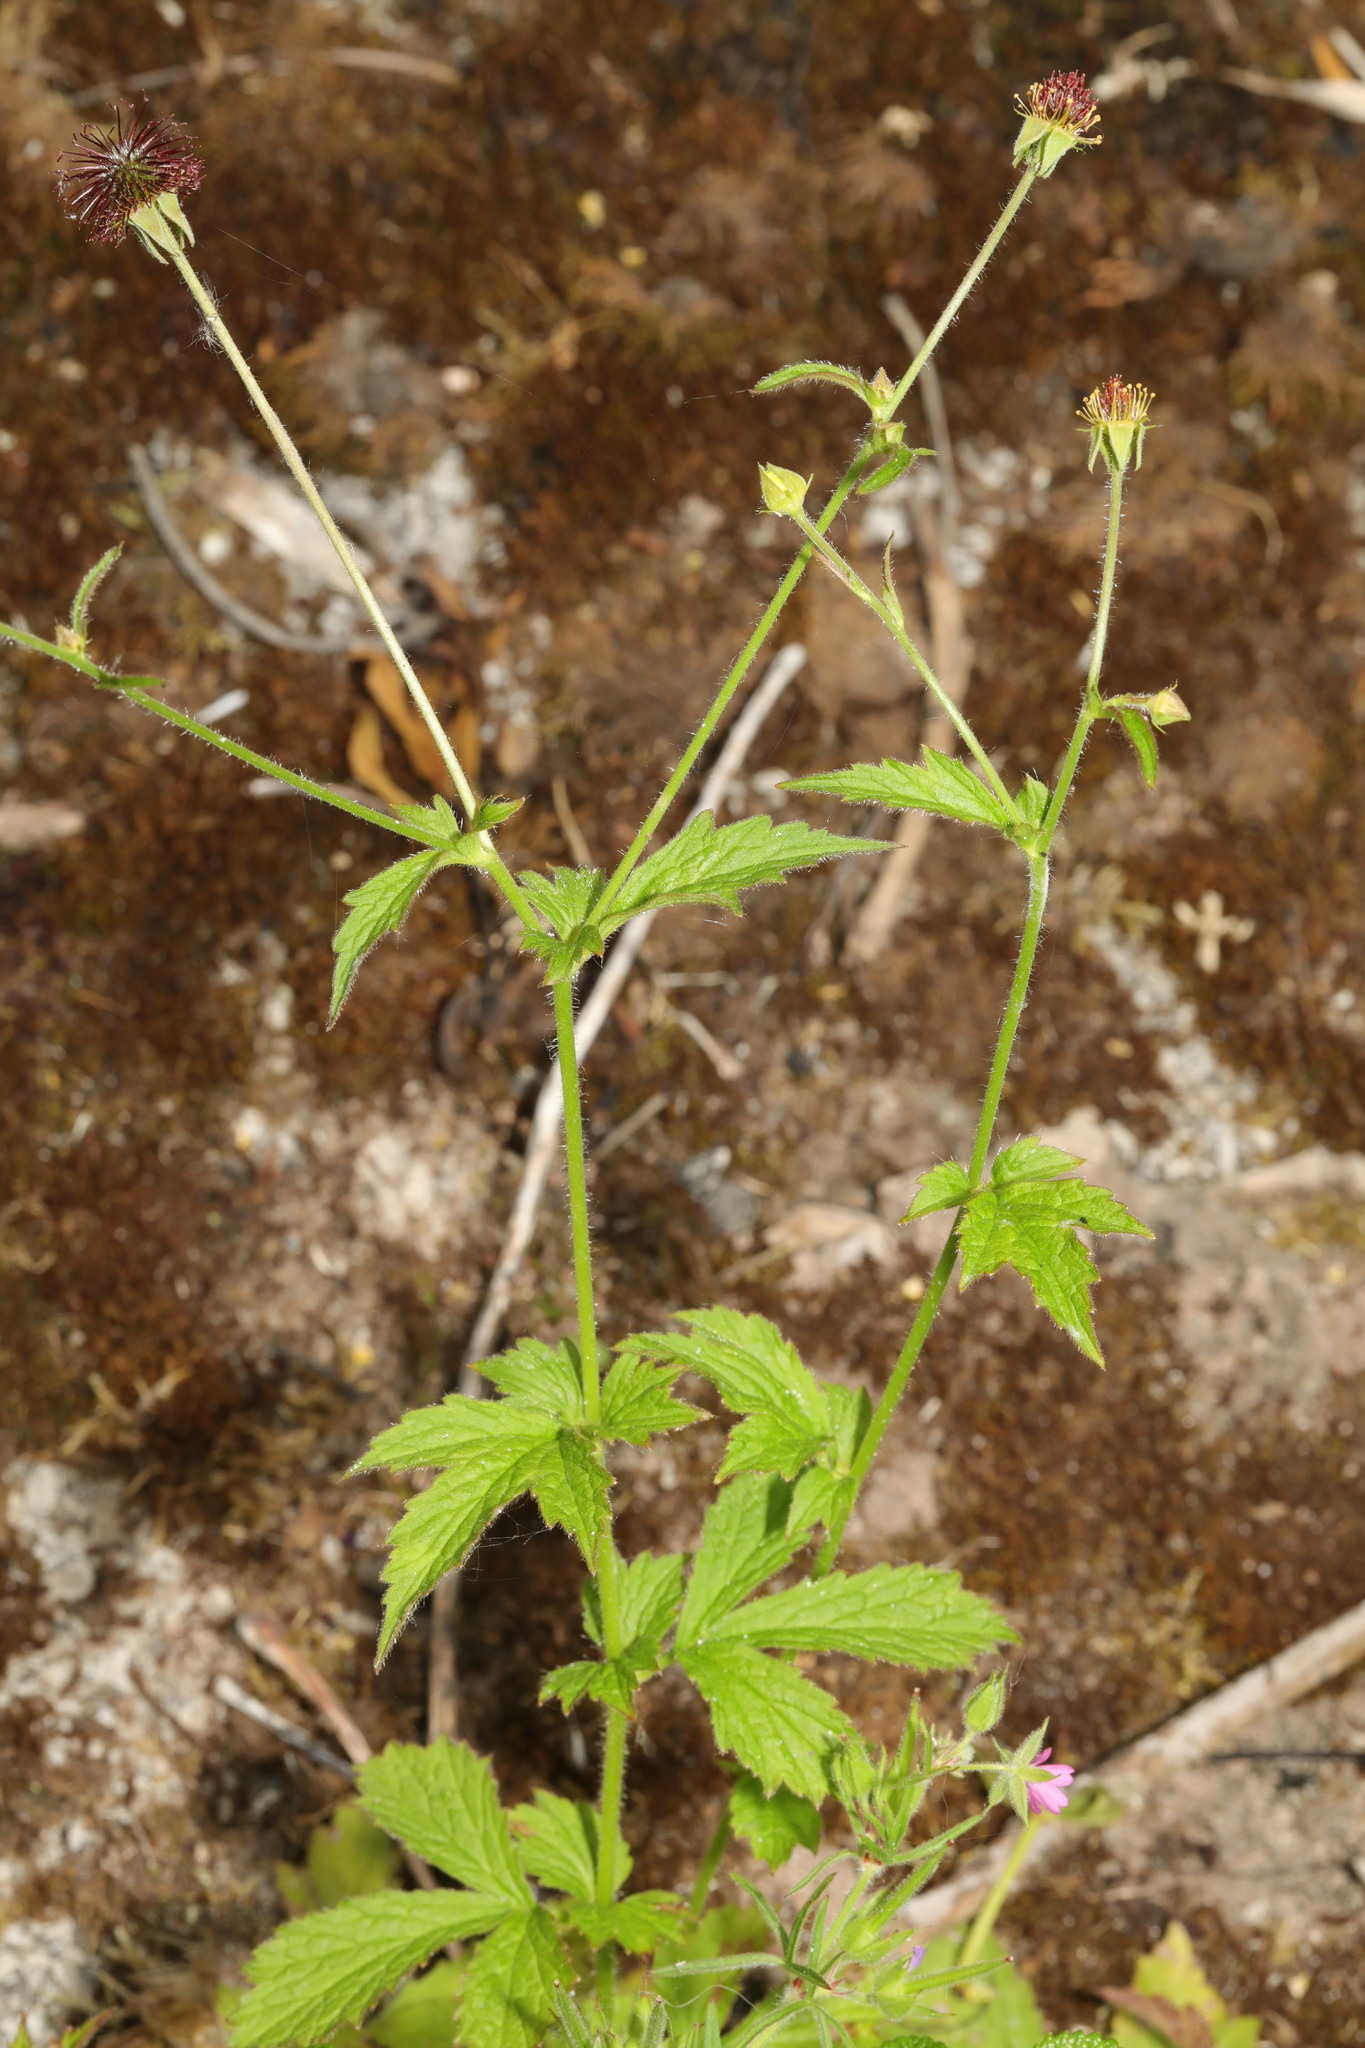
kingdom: Plantae
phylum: Tracheophyta
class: Magnoliopsida
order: Rosales
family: Rosaceae
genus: Geum
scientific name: Geum urbanum
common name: Wood avens
